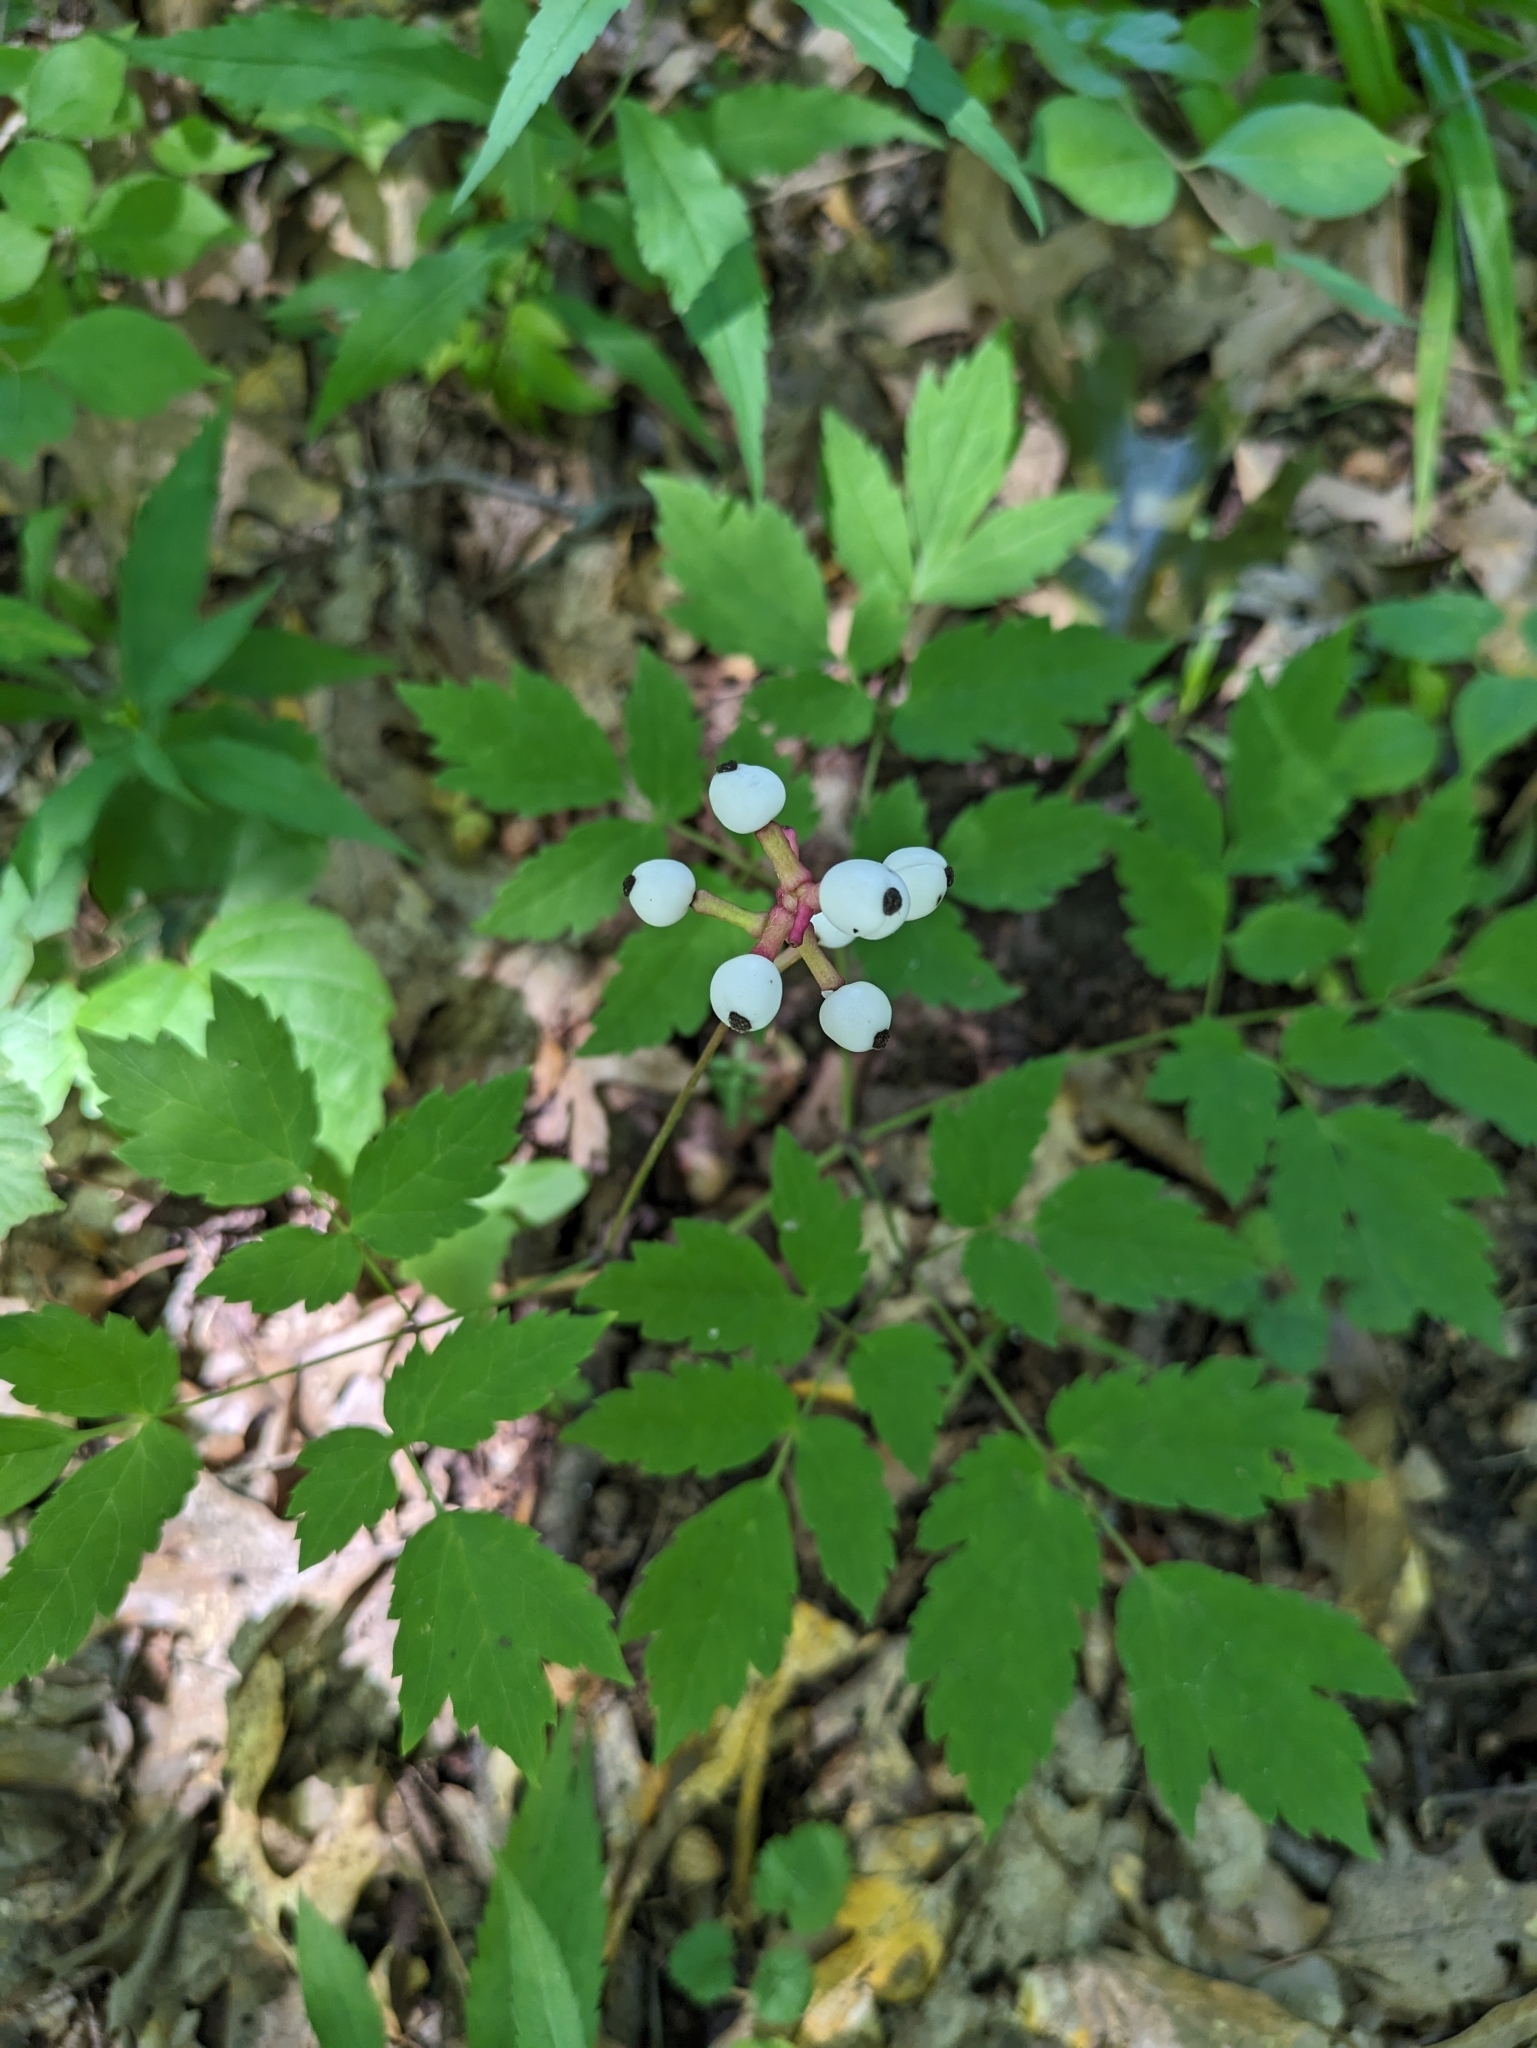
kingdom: Plantae
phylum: Tracheophyta
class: Magnoliopsida
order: Ranunculales
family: Ranunculaceae
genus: Actaea
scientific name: Actaea pachypoda
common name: Doll's-eyes
